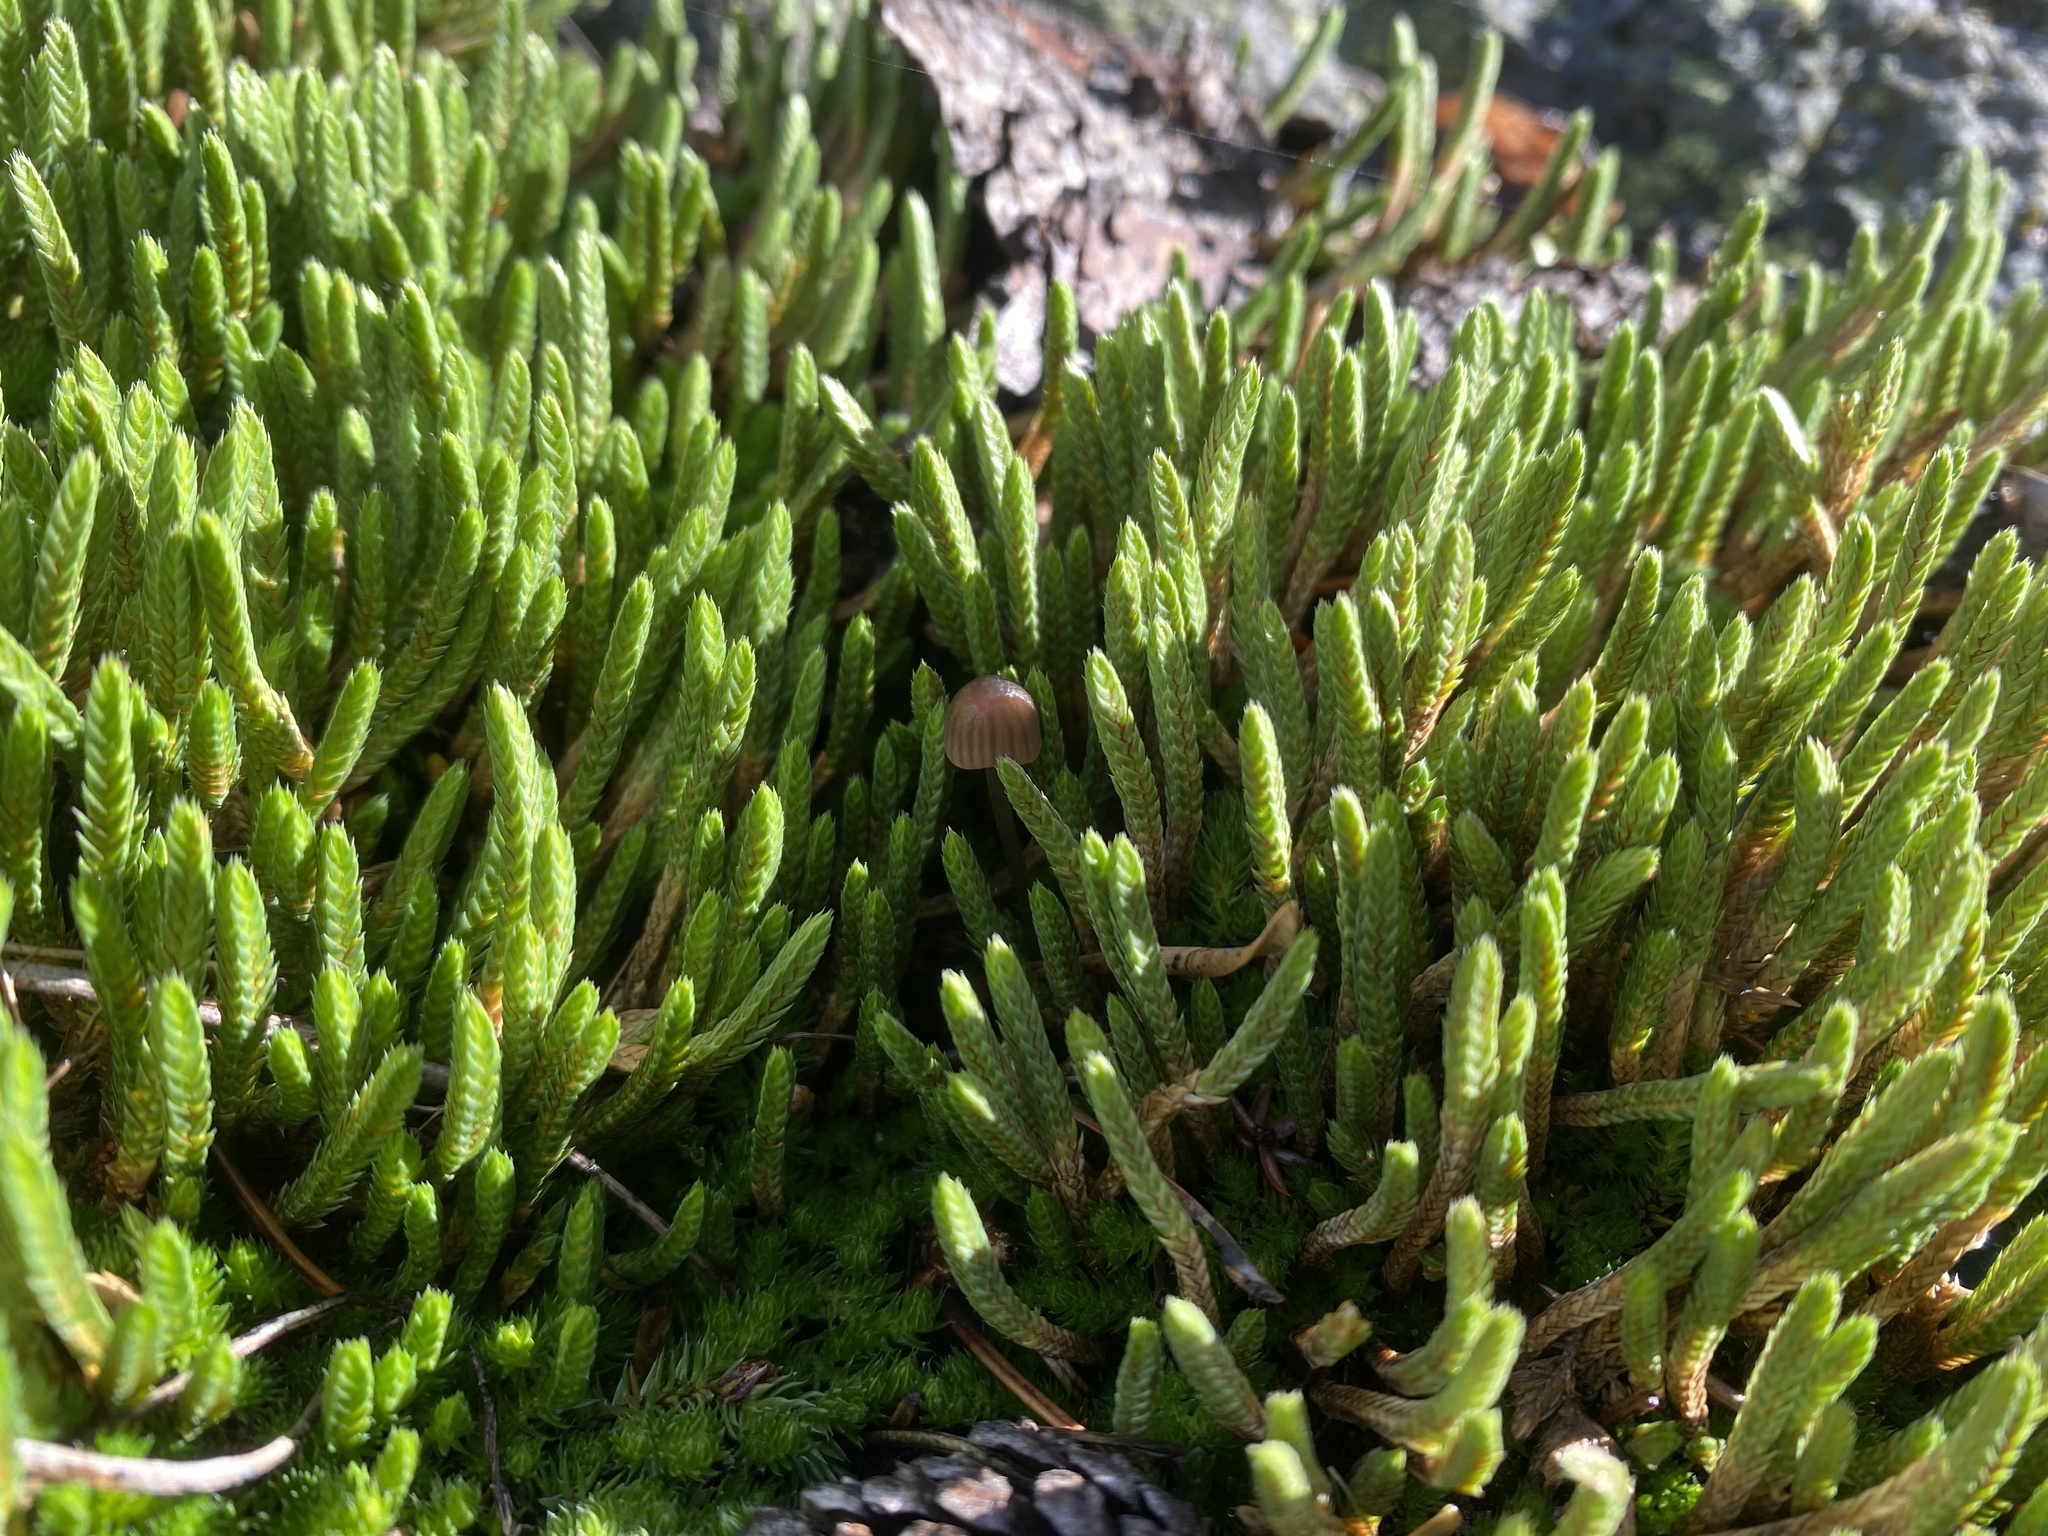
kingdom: Plantae
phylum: Tracheophyta
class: Lycopodiopsida
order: Selaginellales
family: Selaginellaceae
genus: Selaginella
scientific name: Selaginella densa
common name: Mountain spike-moss
